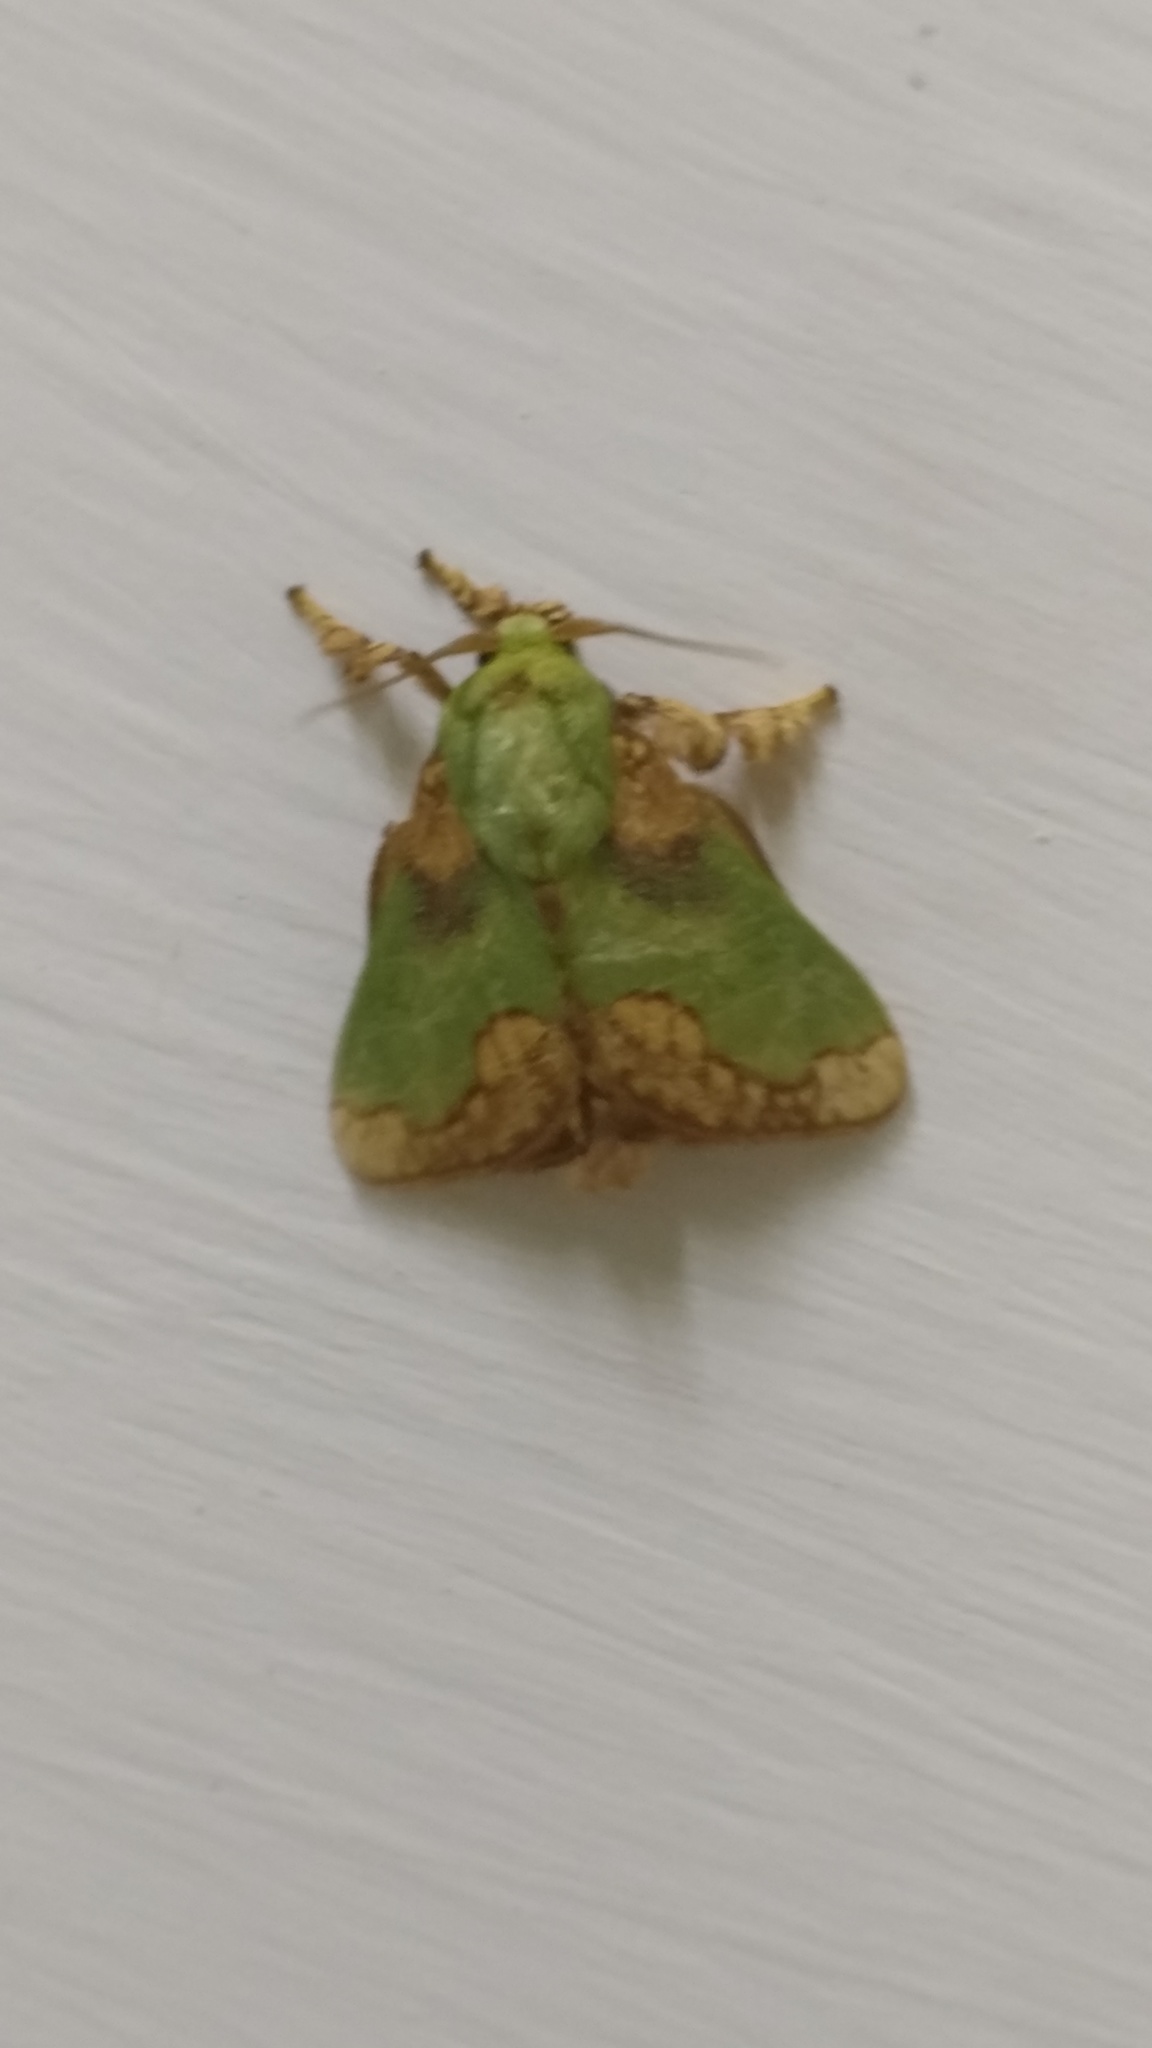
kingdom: Animalia
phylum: Arthropoda
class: Insecta
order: Lepidoptera
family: Limacodidae
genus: Parasa
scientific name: Parasa pastoralis
